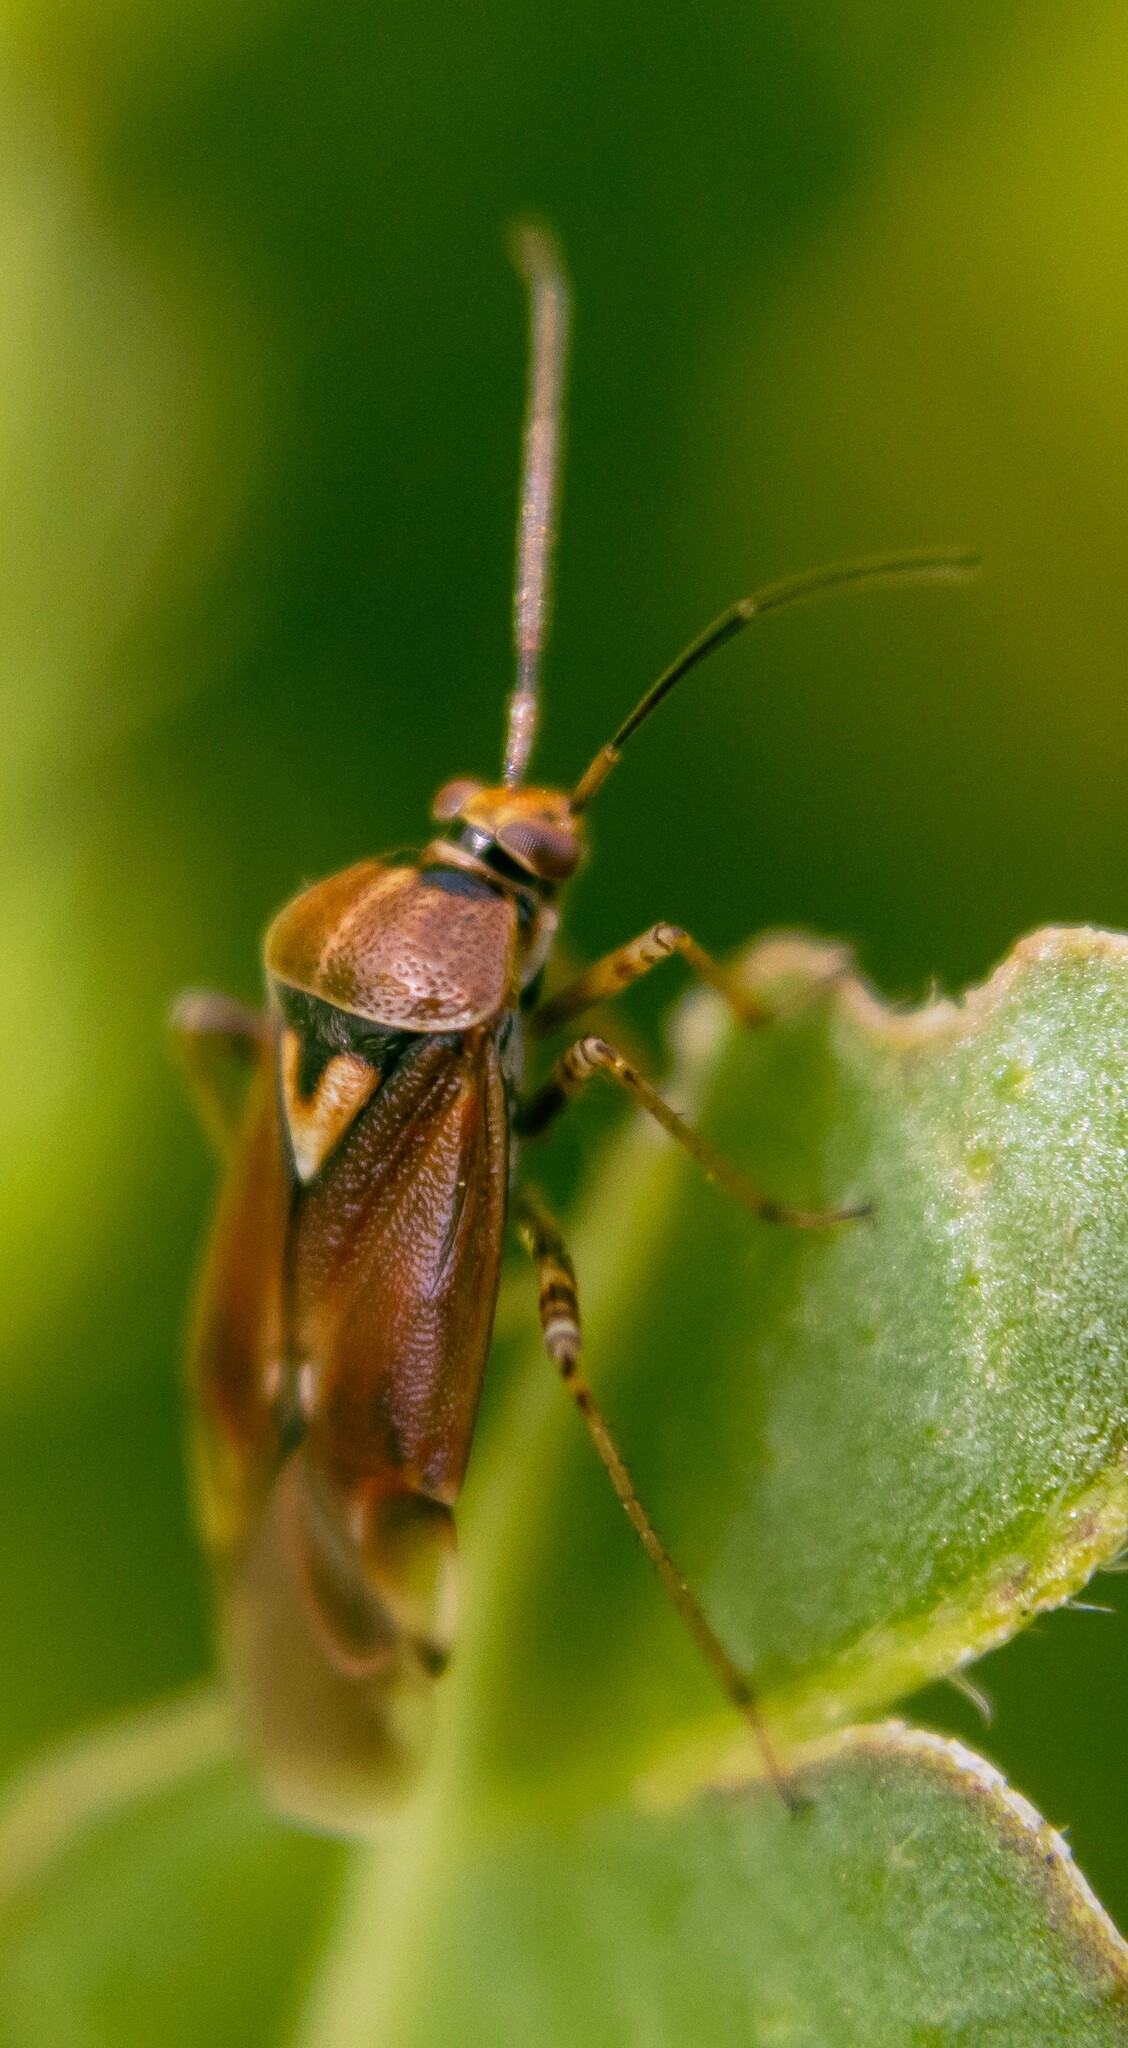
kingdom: Animalia
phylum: Arthropoda
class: Insecta
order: Hemiptera
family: Miridae
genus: Lygus
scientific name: Lygus pratensis
